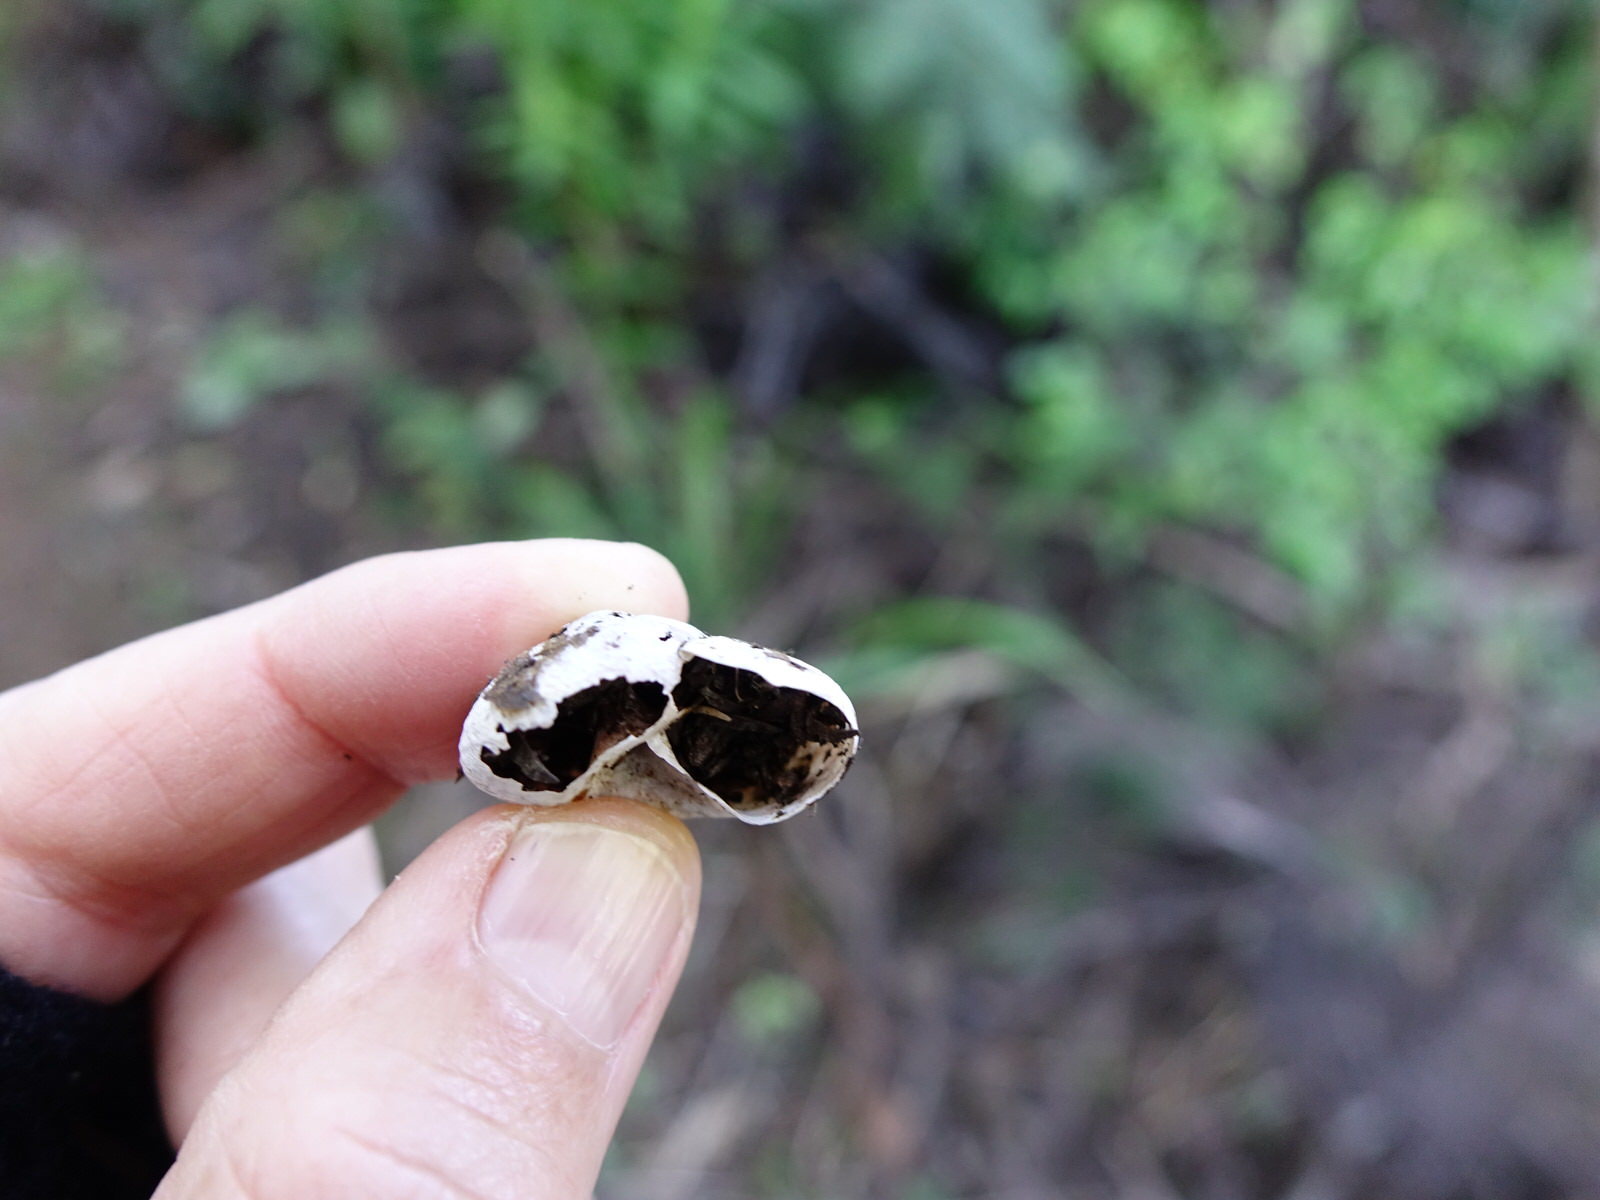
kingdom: Animalia
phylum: Mollusca
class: Gastropoda
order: Stylommatophora
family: Rhytididae
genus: Rhytida
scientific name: Rhytida greenwoodi
